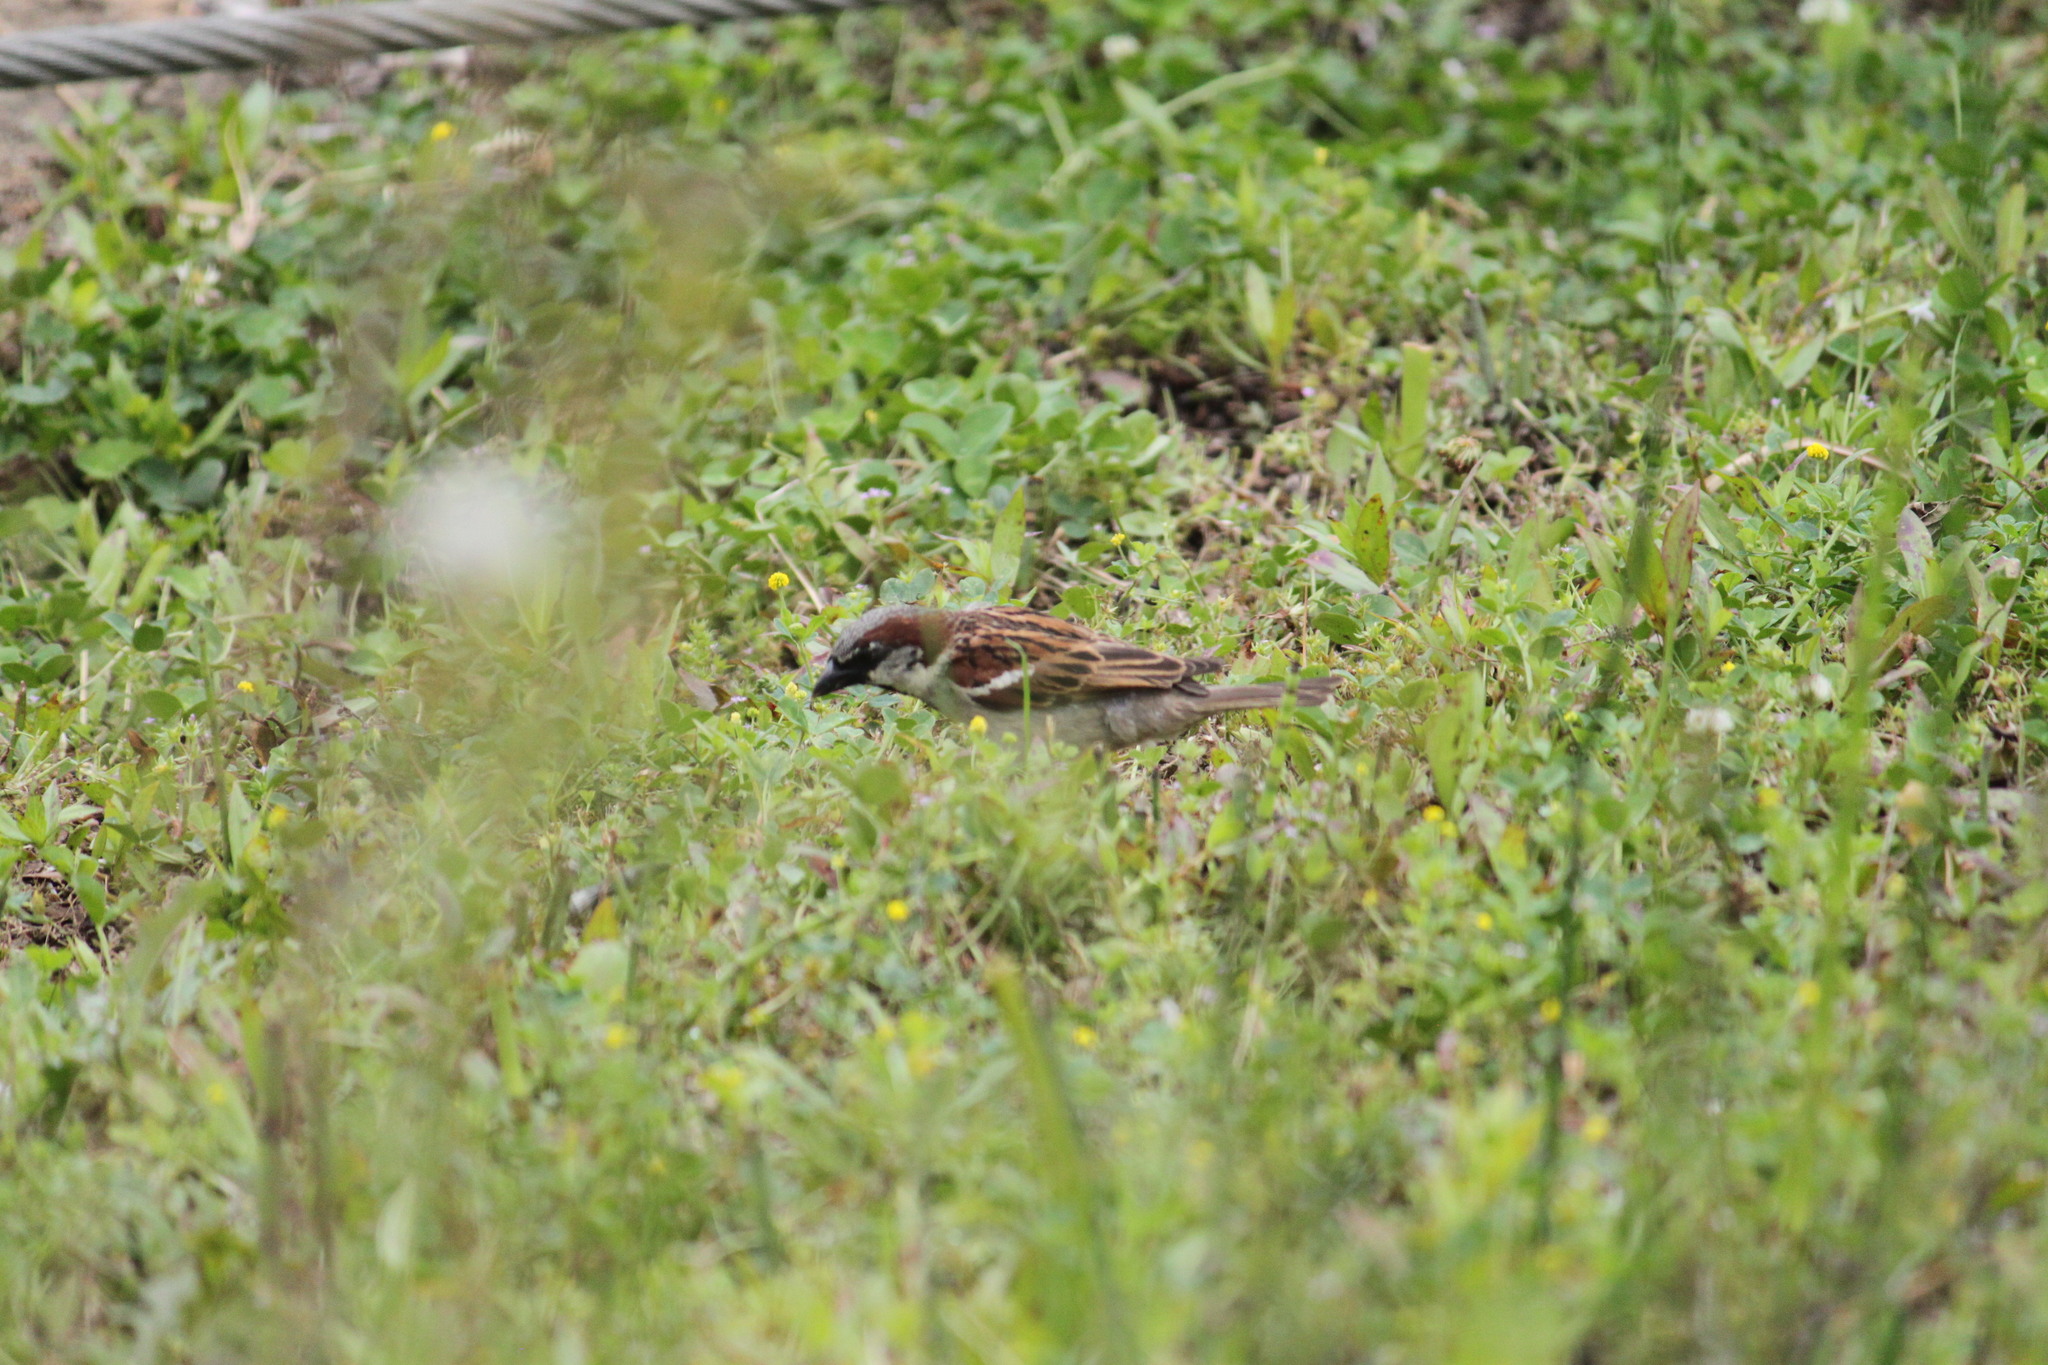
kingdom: Animalia
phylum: Chordata
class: Aves
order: Passeriformes
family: Passeridae
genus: Passer
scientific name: Passer domesticus
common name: House sparrow
